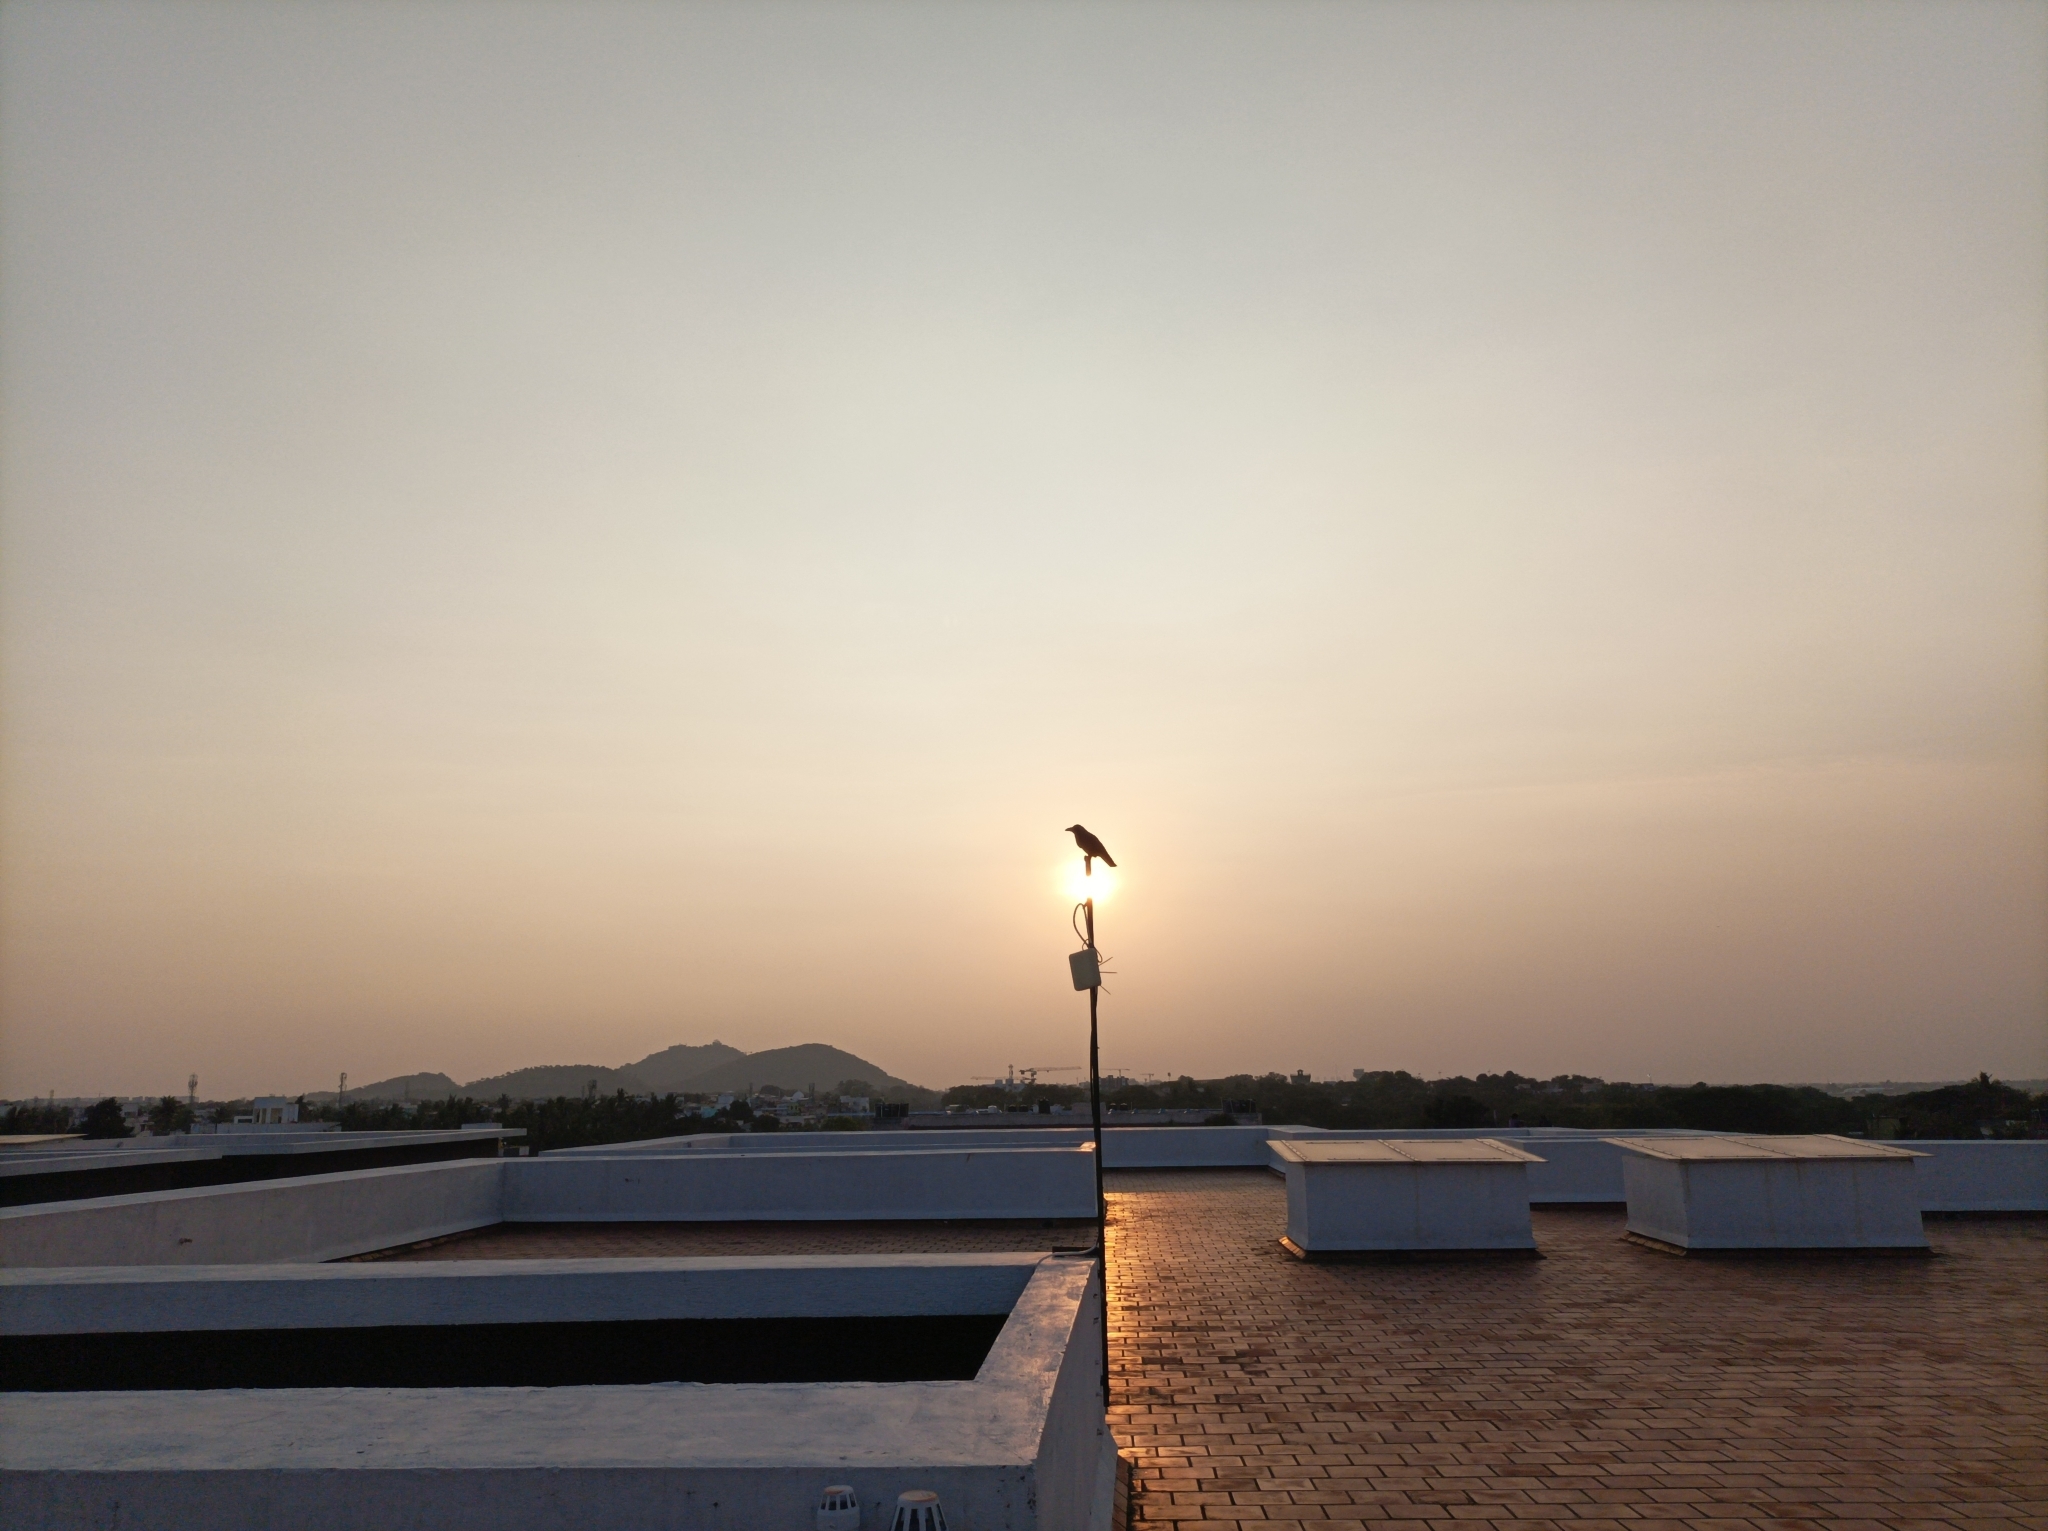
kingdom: Animalia
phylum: Chordata
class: Aves
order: Passeriformes
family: Corvidae
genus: Corvus
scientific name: Corvus splendens
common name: House crow
